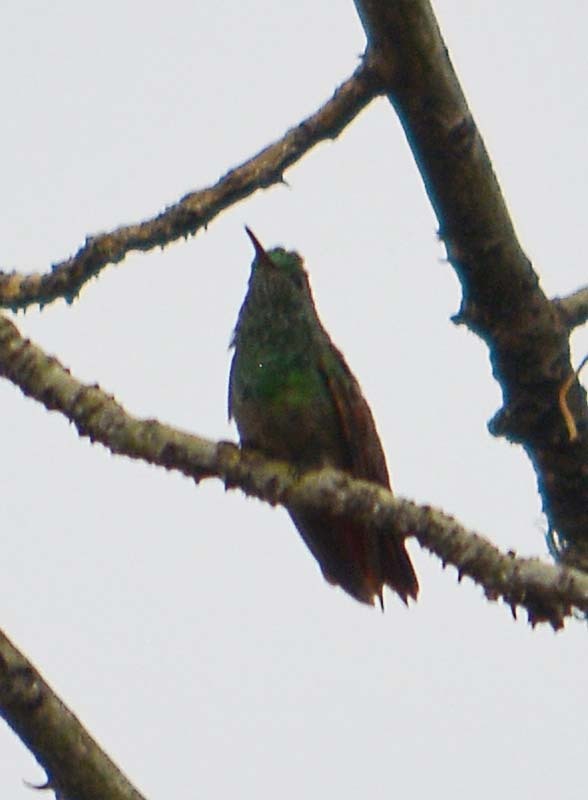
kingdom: Animalia
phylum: Chordata
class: Aves
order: Apodiformes
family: Trochilidae
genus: Saucerottia
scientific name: Saucerottia beryllina
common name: Berylline hummingbird
